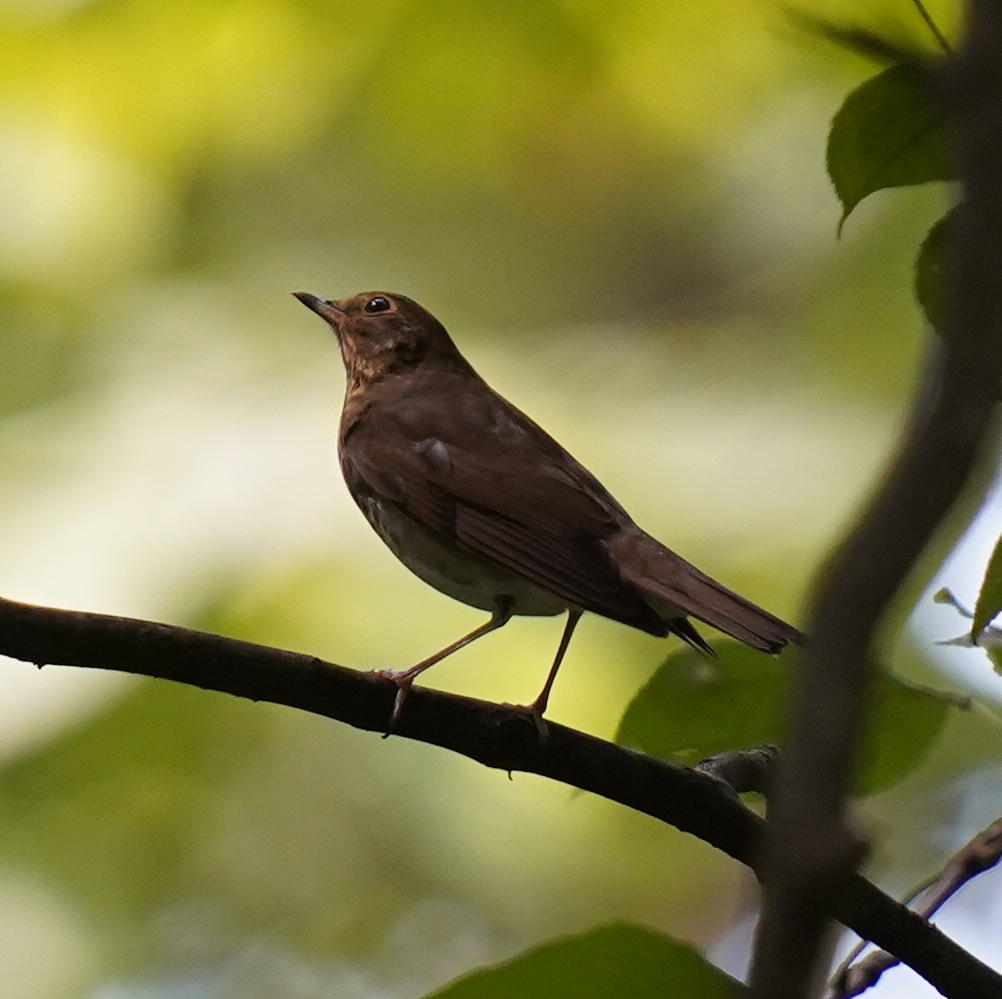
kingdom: Animalia
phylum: Chordata
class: Aves
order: Passeriformes
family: Turdidae
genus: Catharus
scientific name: Catharus ustulatus
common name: Swainson's thrush
